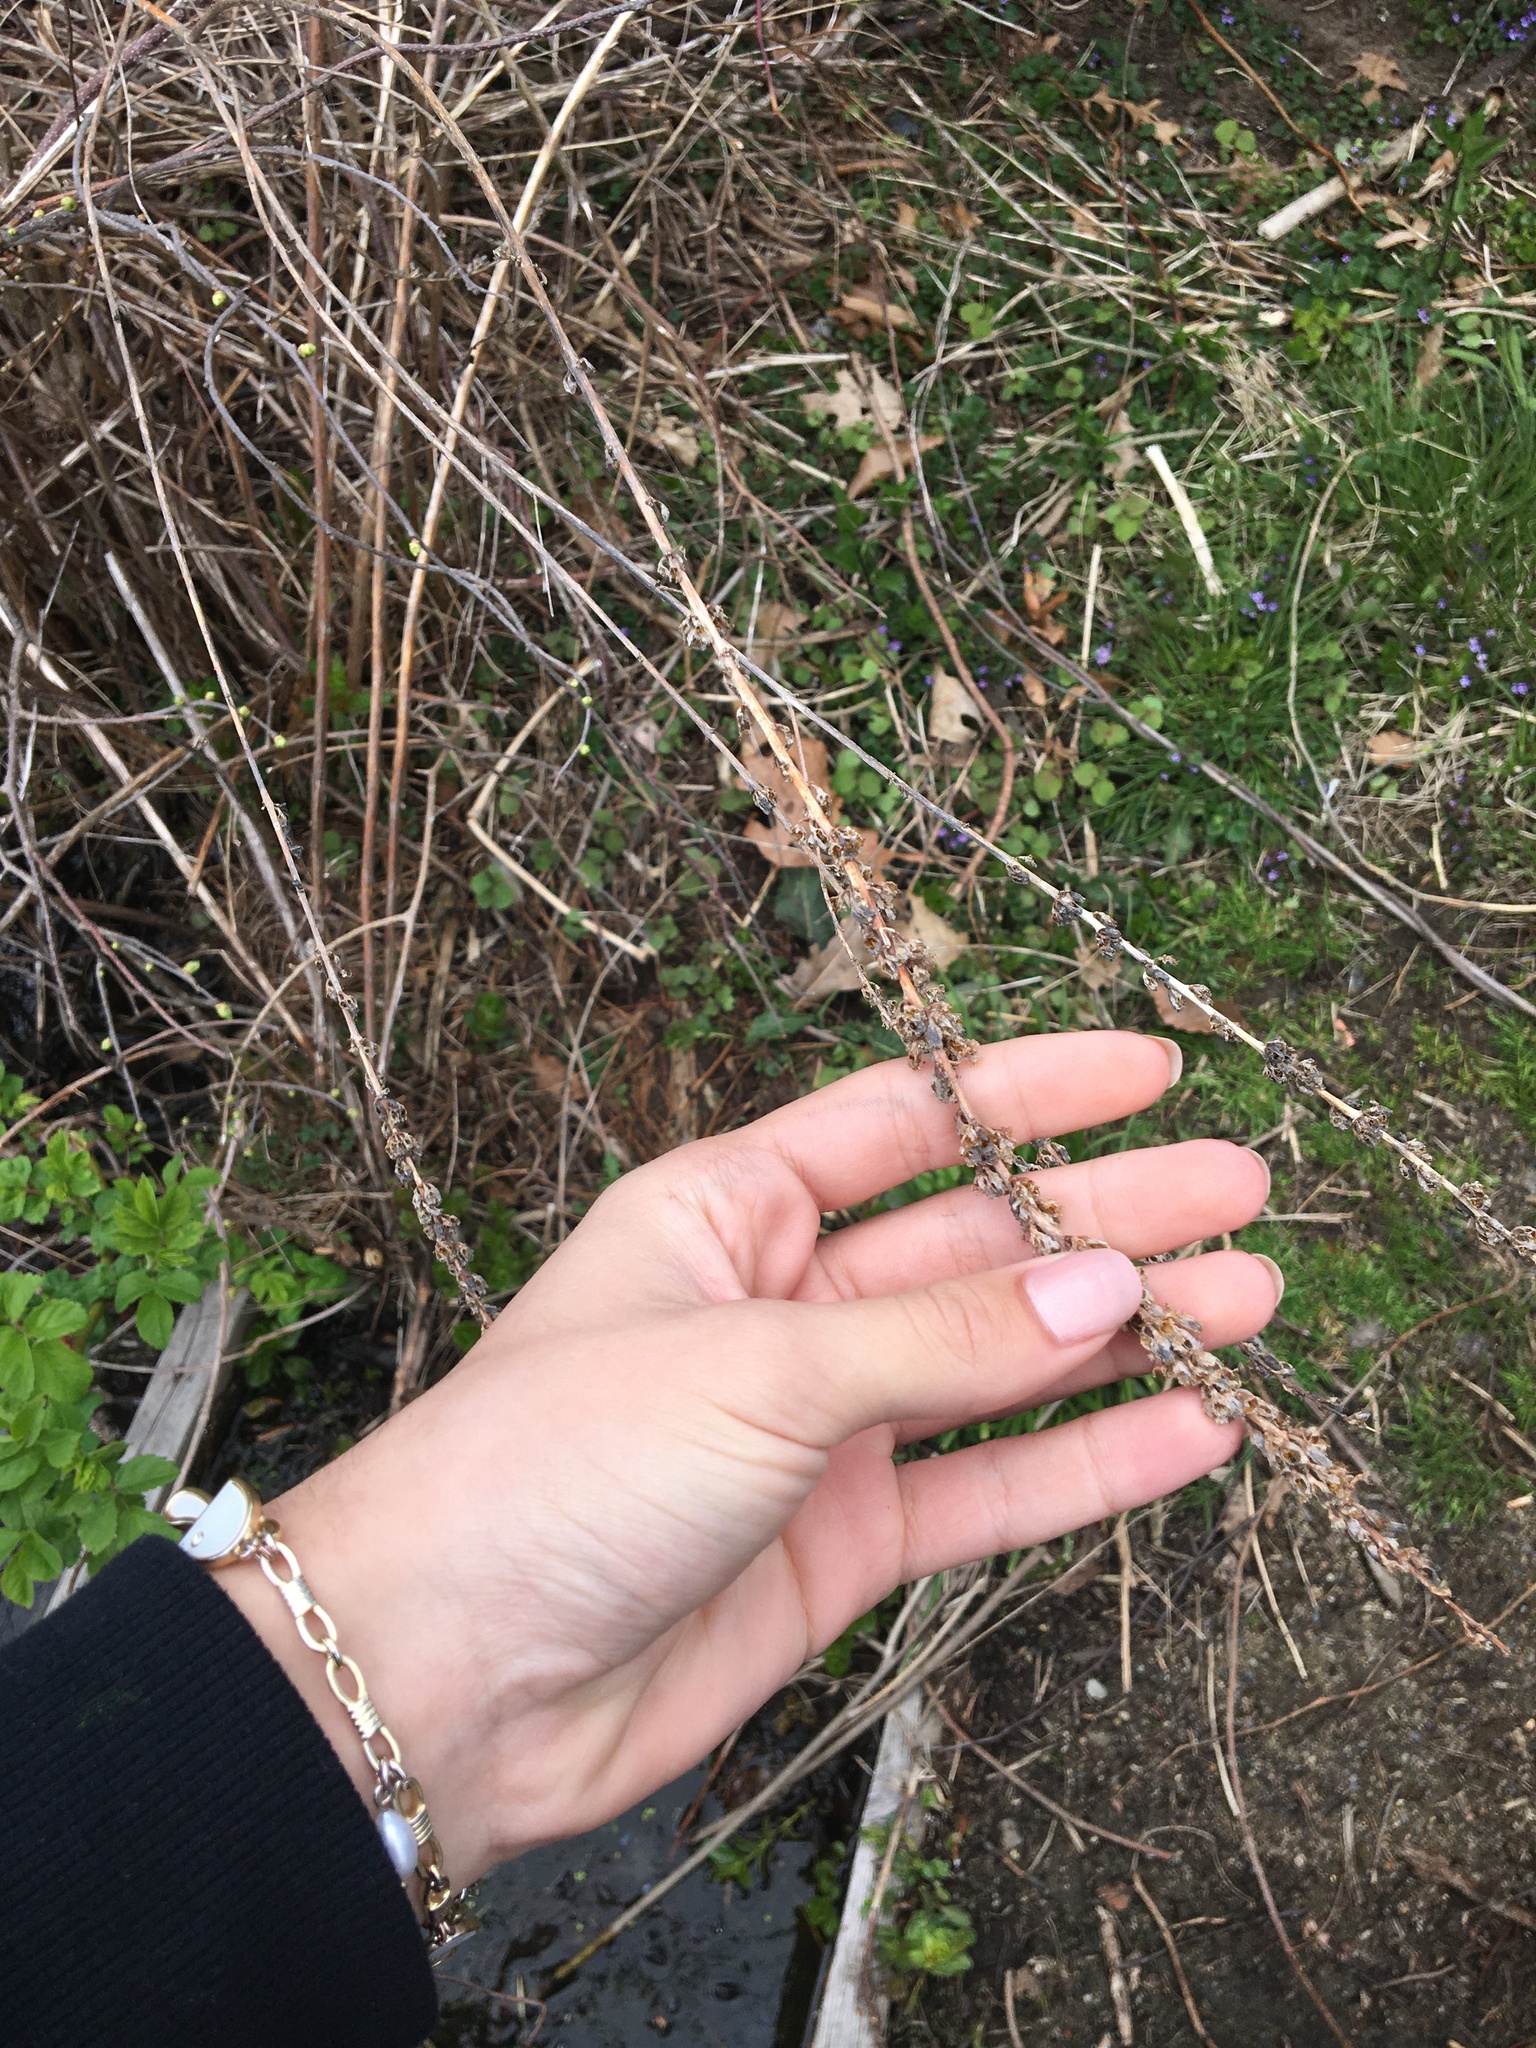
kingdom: Plantae
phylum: Tracheophyta
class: Magnoliopsida
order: Myrtales
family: Lythraceae
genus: Lythrum
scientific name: Lythrum salicaria
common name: Purple loosestrife
